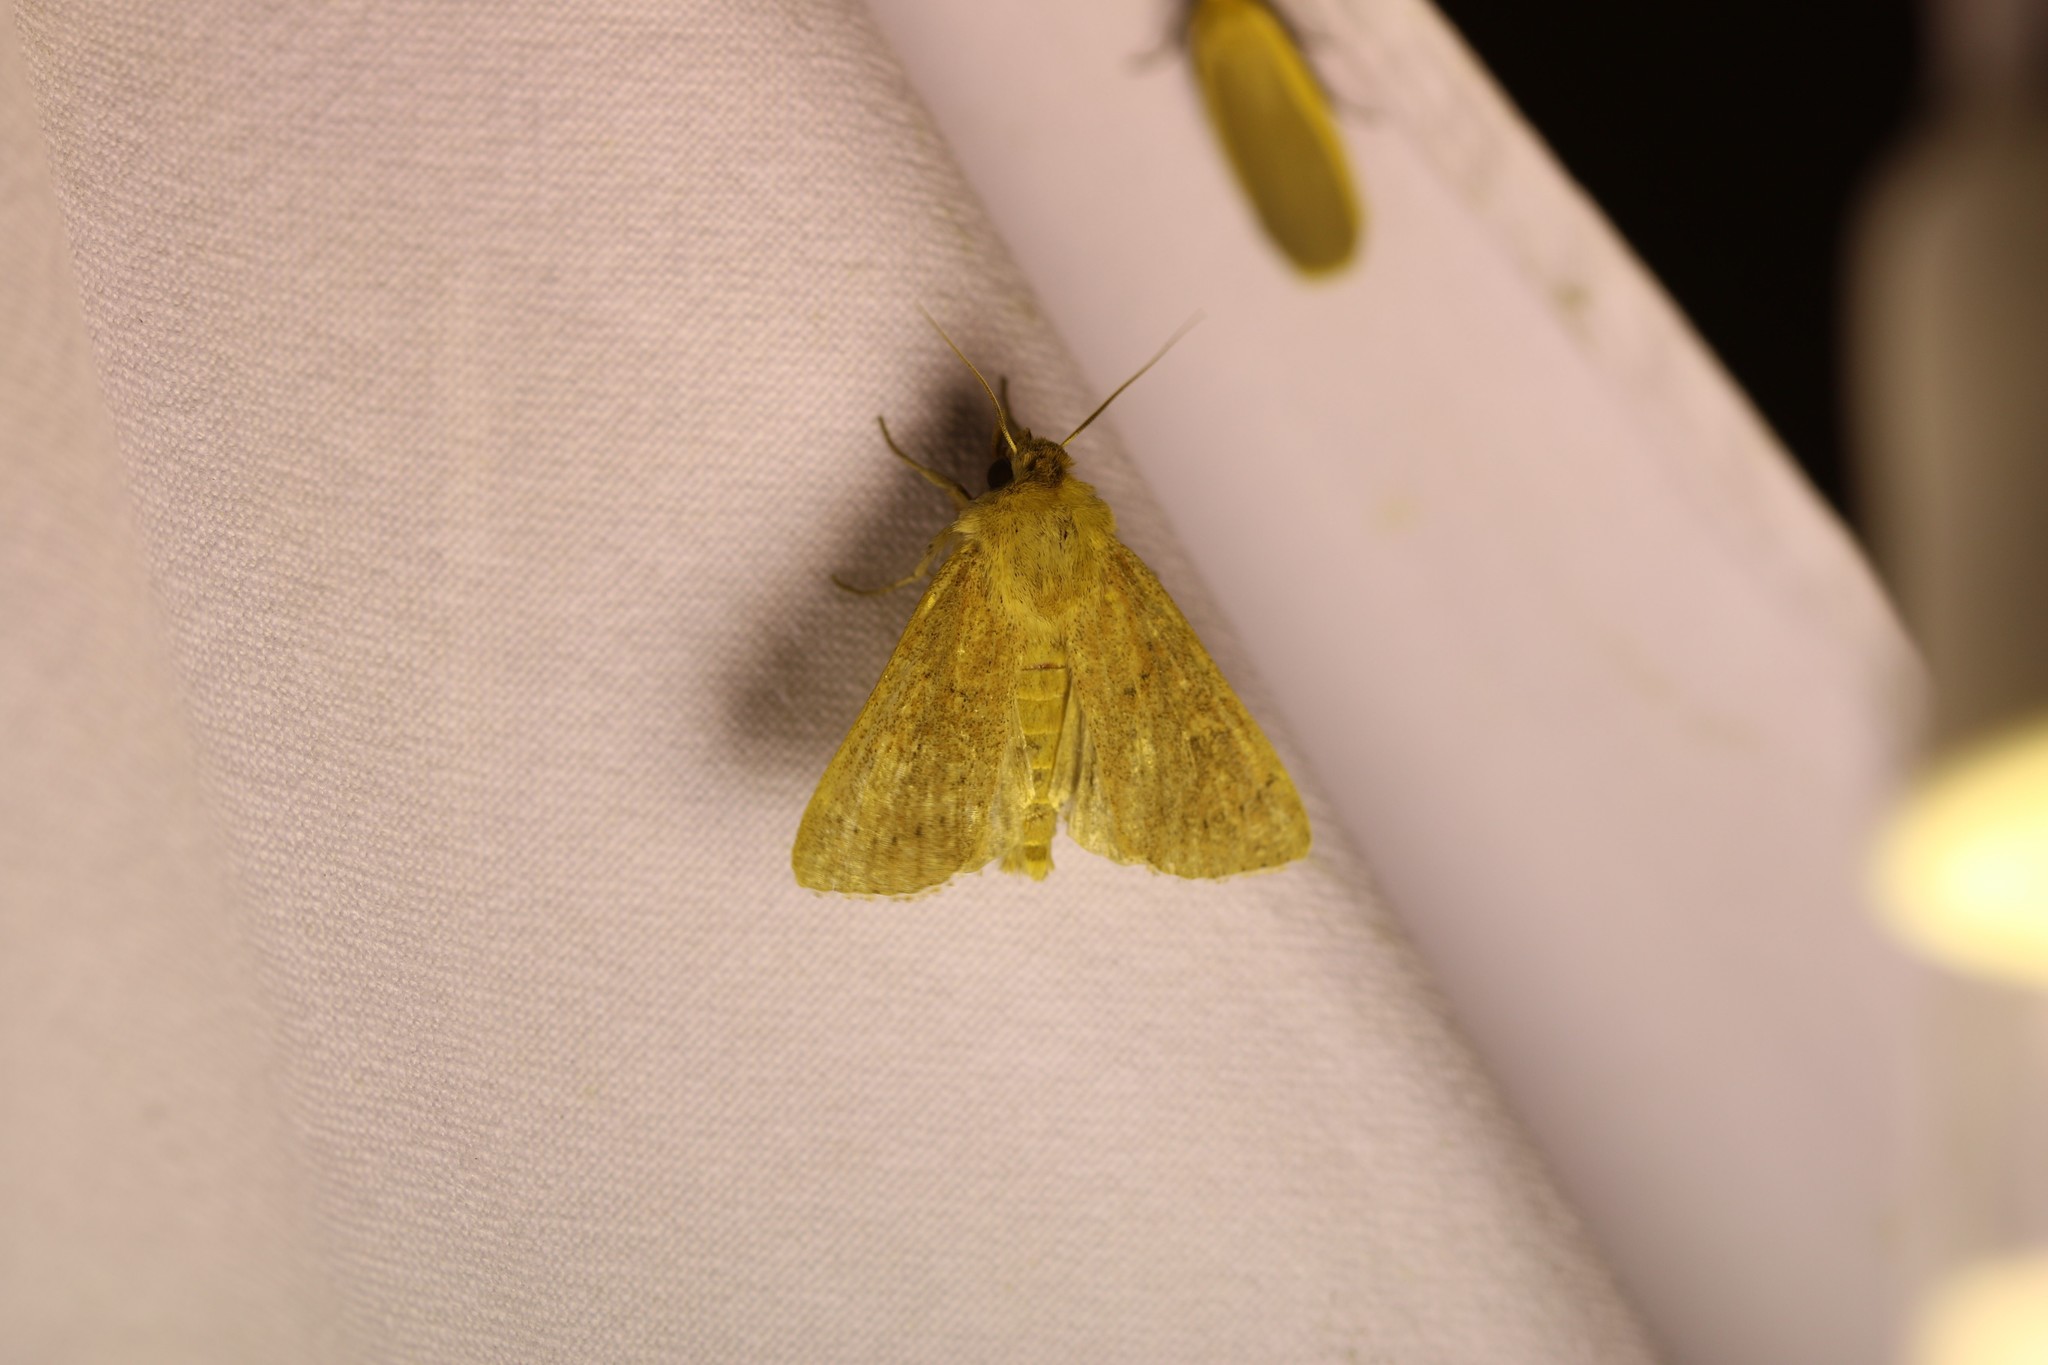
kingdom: Animalia
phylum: Arthropoda
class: Insecta
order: Lepidoptera
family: Noctuidae
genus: Mythimna
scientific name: Mythimna ferrago
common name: Clay
